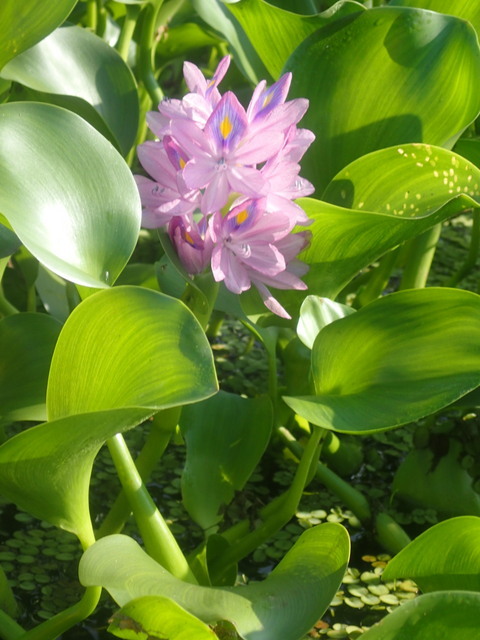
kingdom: Plantae
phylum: Tracheophyta
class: Liliopsida
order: Commelinales
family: Pontederiaceae
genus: Pontederia
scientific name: Pontederia crassipes
